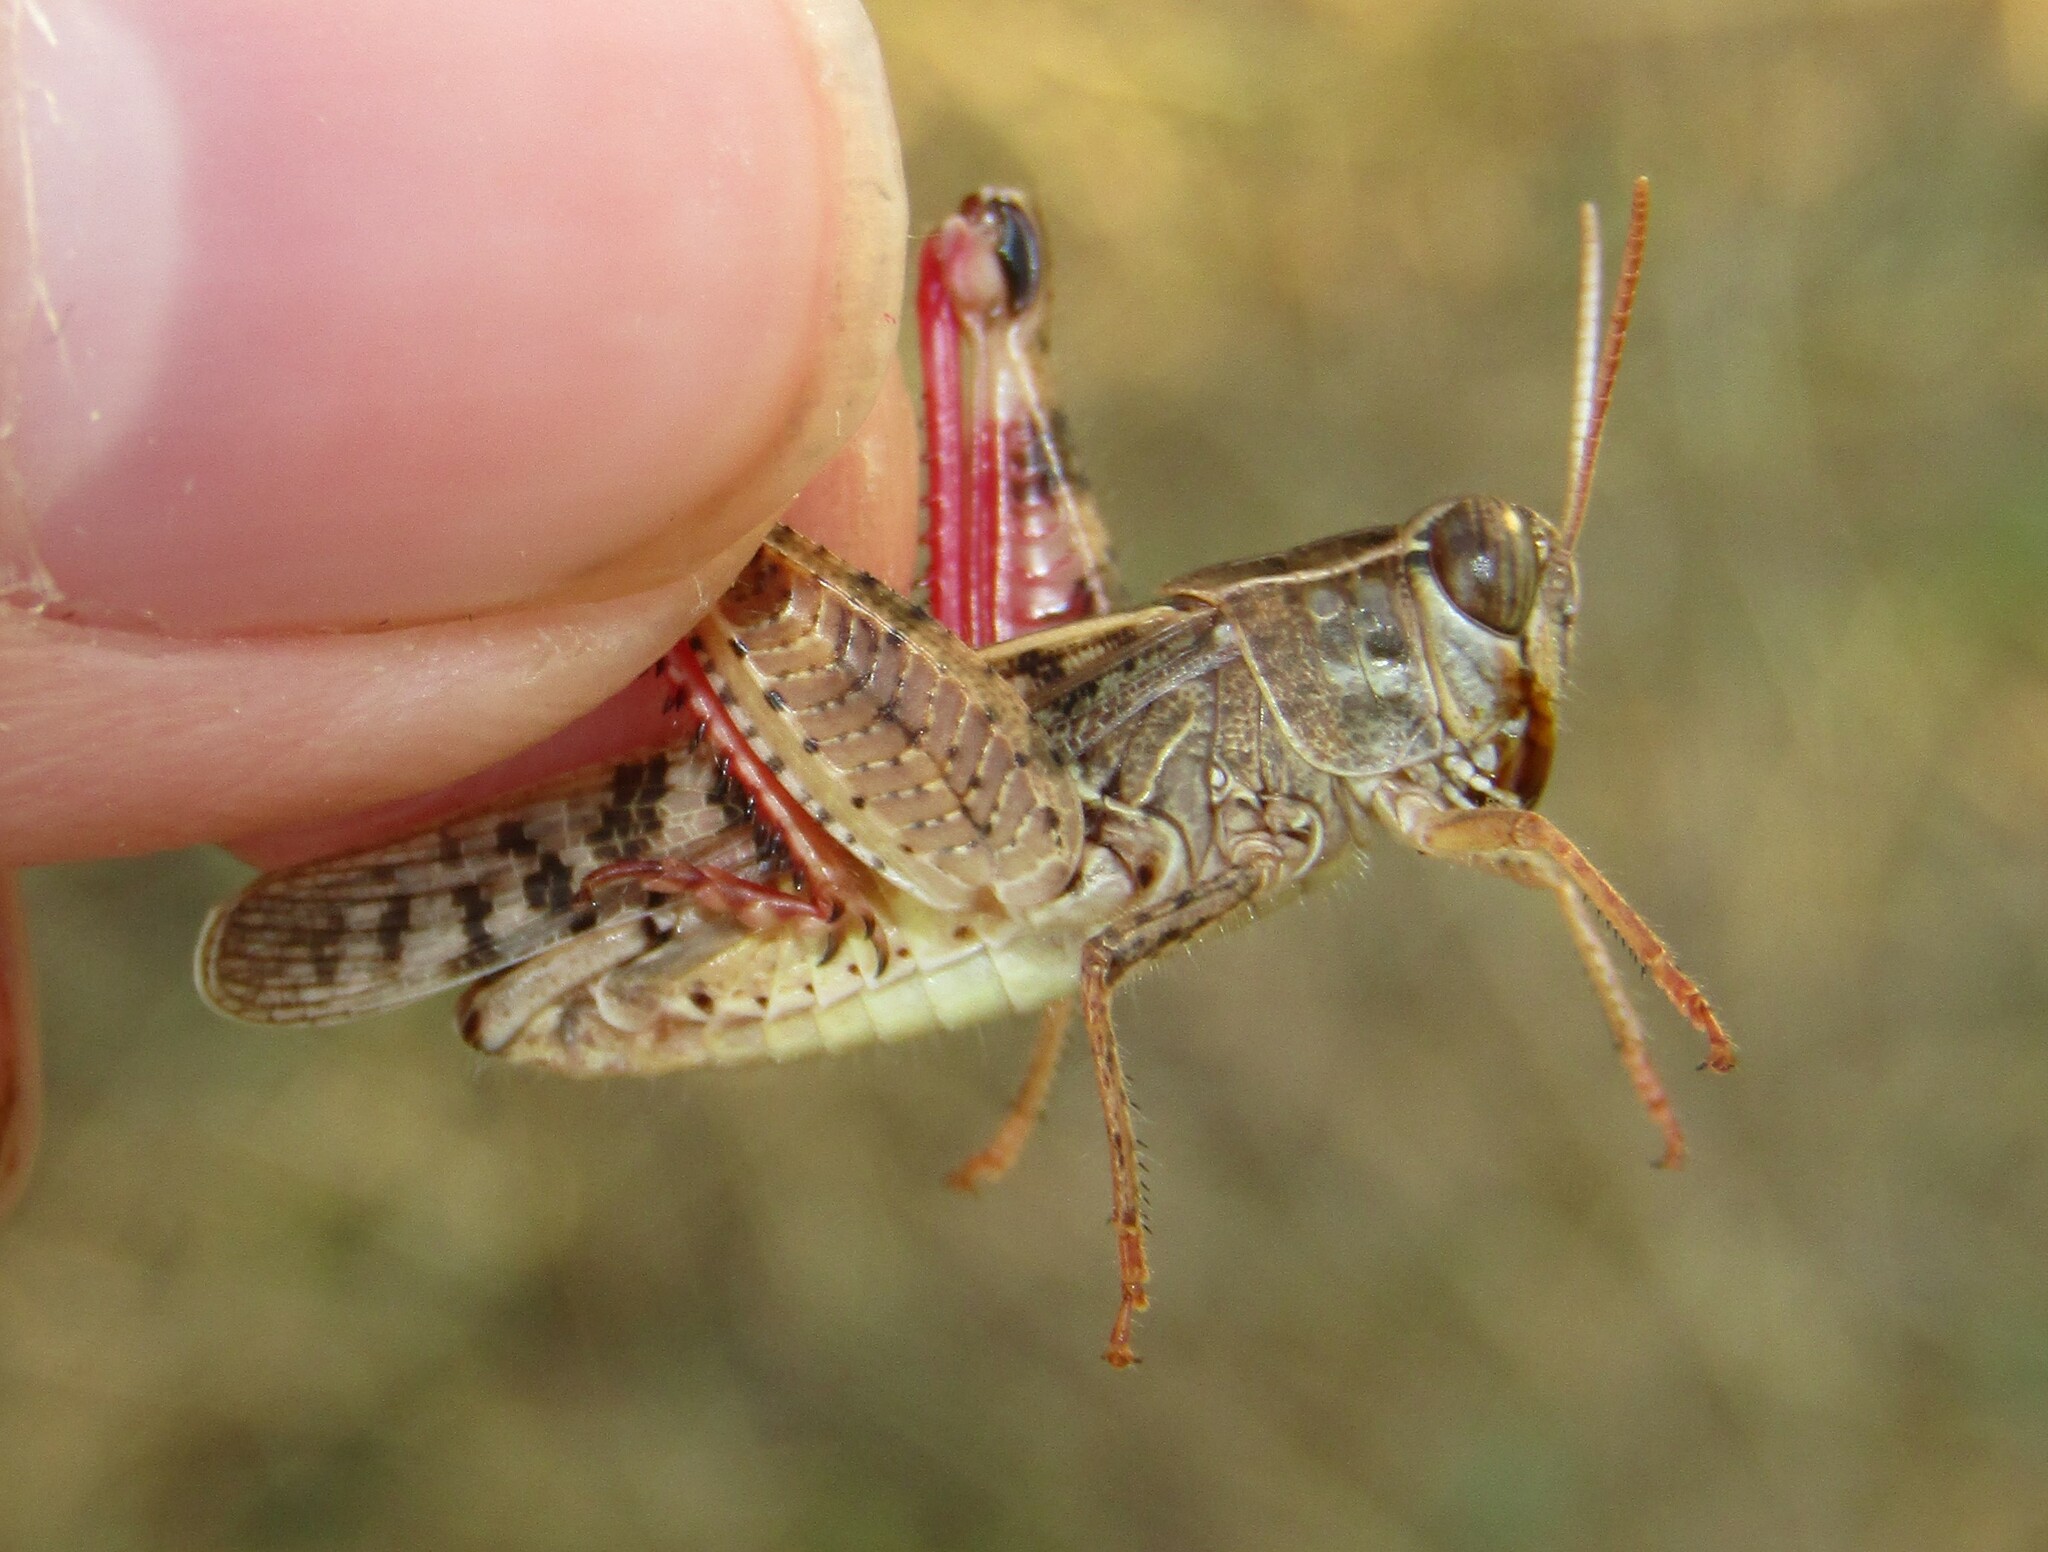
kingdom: Animalia
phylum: Arthropoda
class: Insecta
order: Orthoptera
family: Acrididae
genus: Calliptamus
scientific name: Calliptamus italicus
